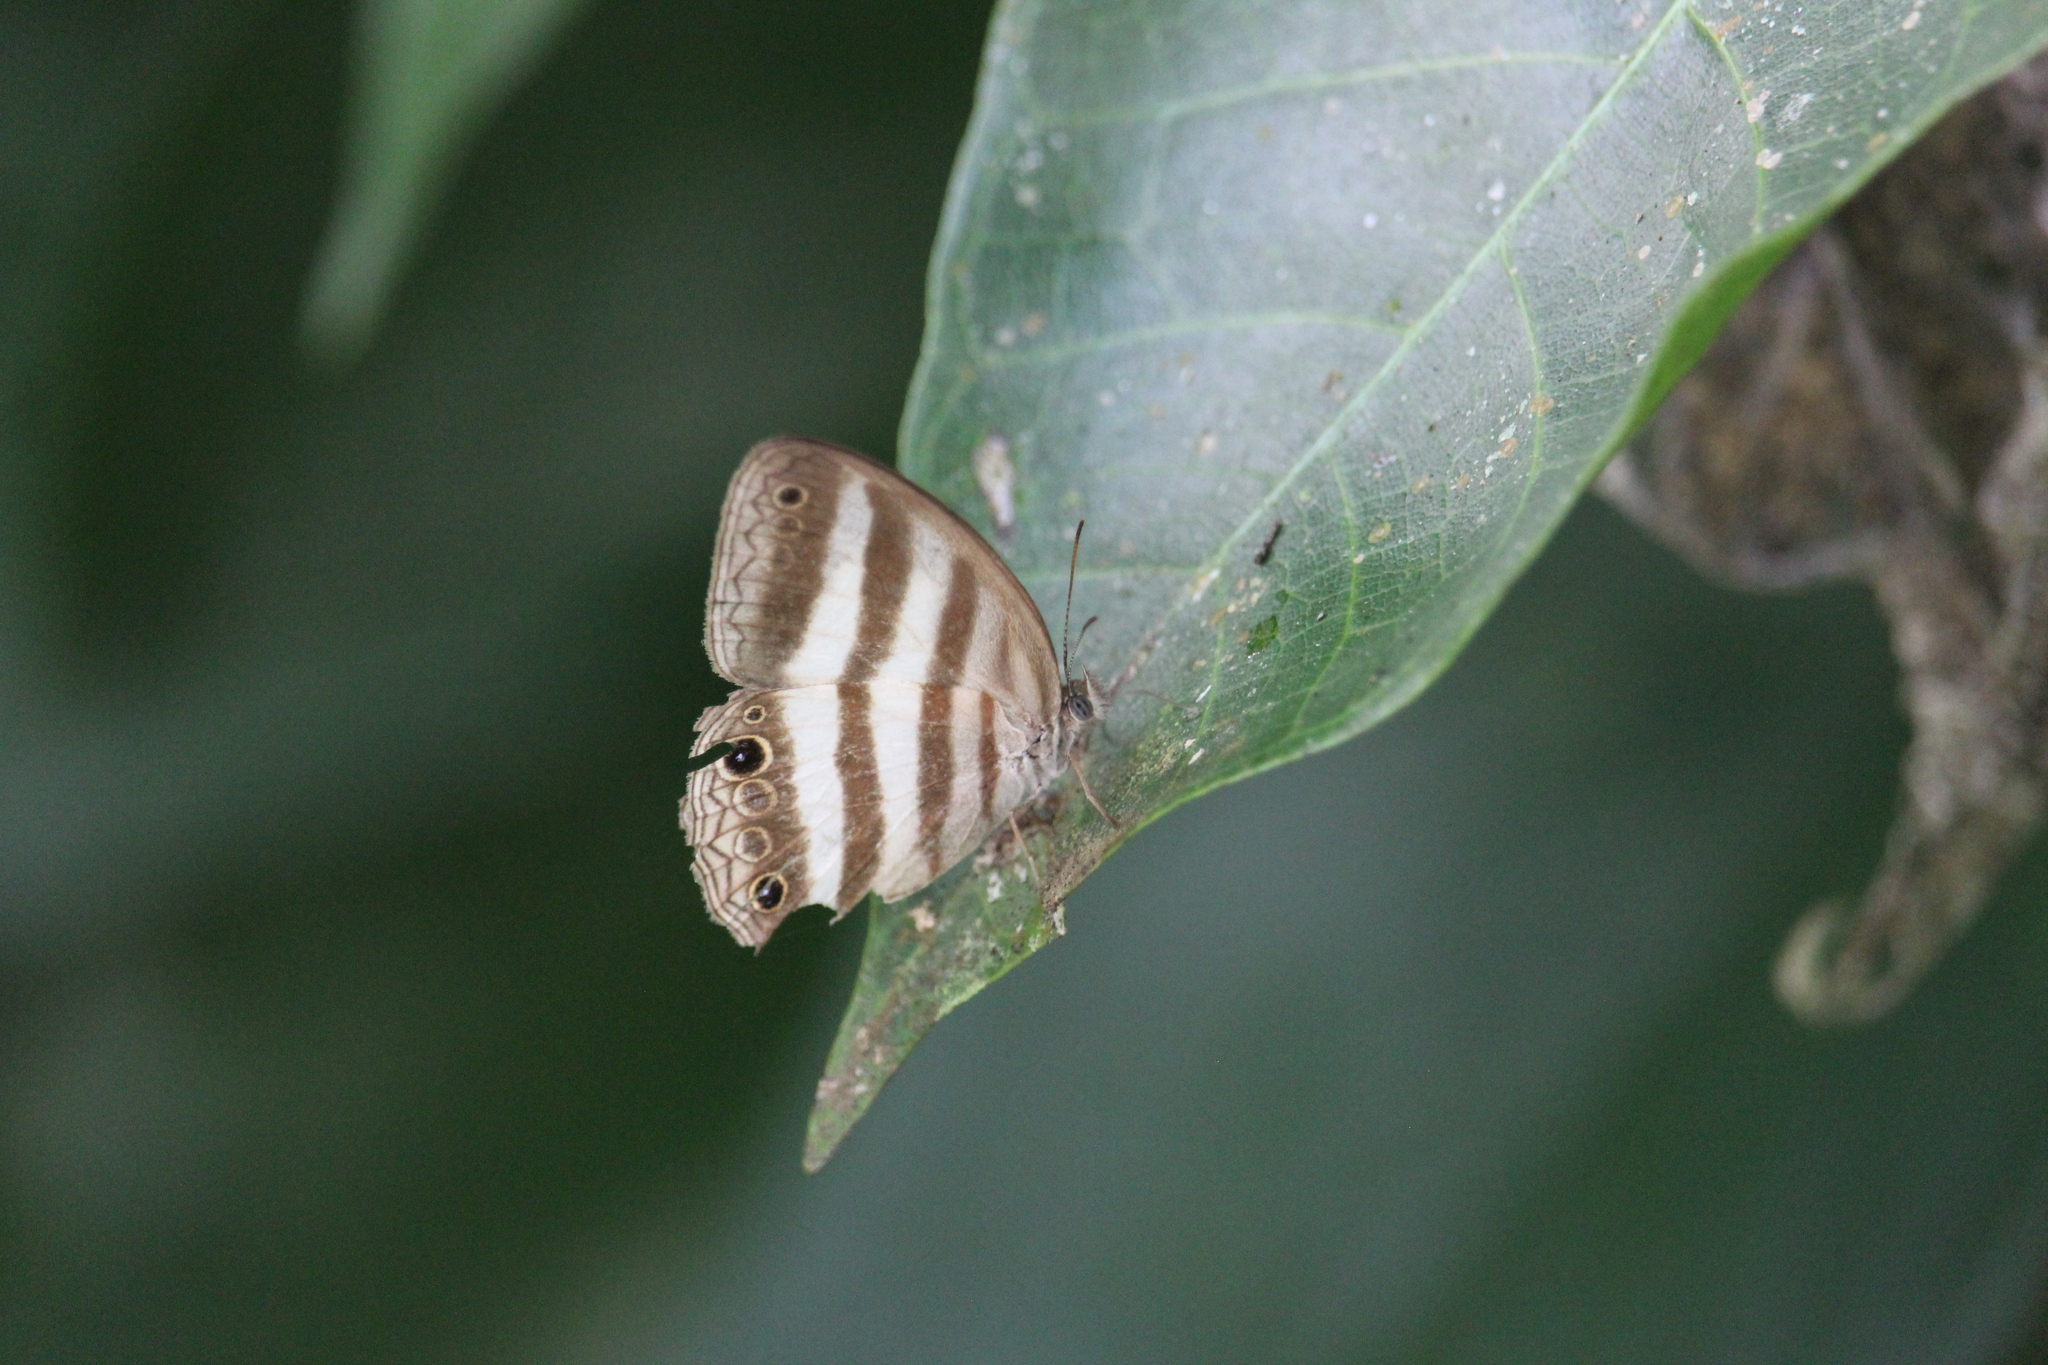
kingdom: Animalia
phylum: Arthropoda
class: Insecta
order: Lepidoptera
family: Nymphalidae
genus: Pareuptychia
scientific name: Pareuptychia hesione
